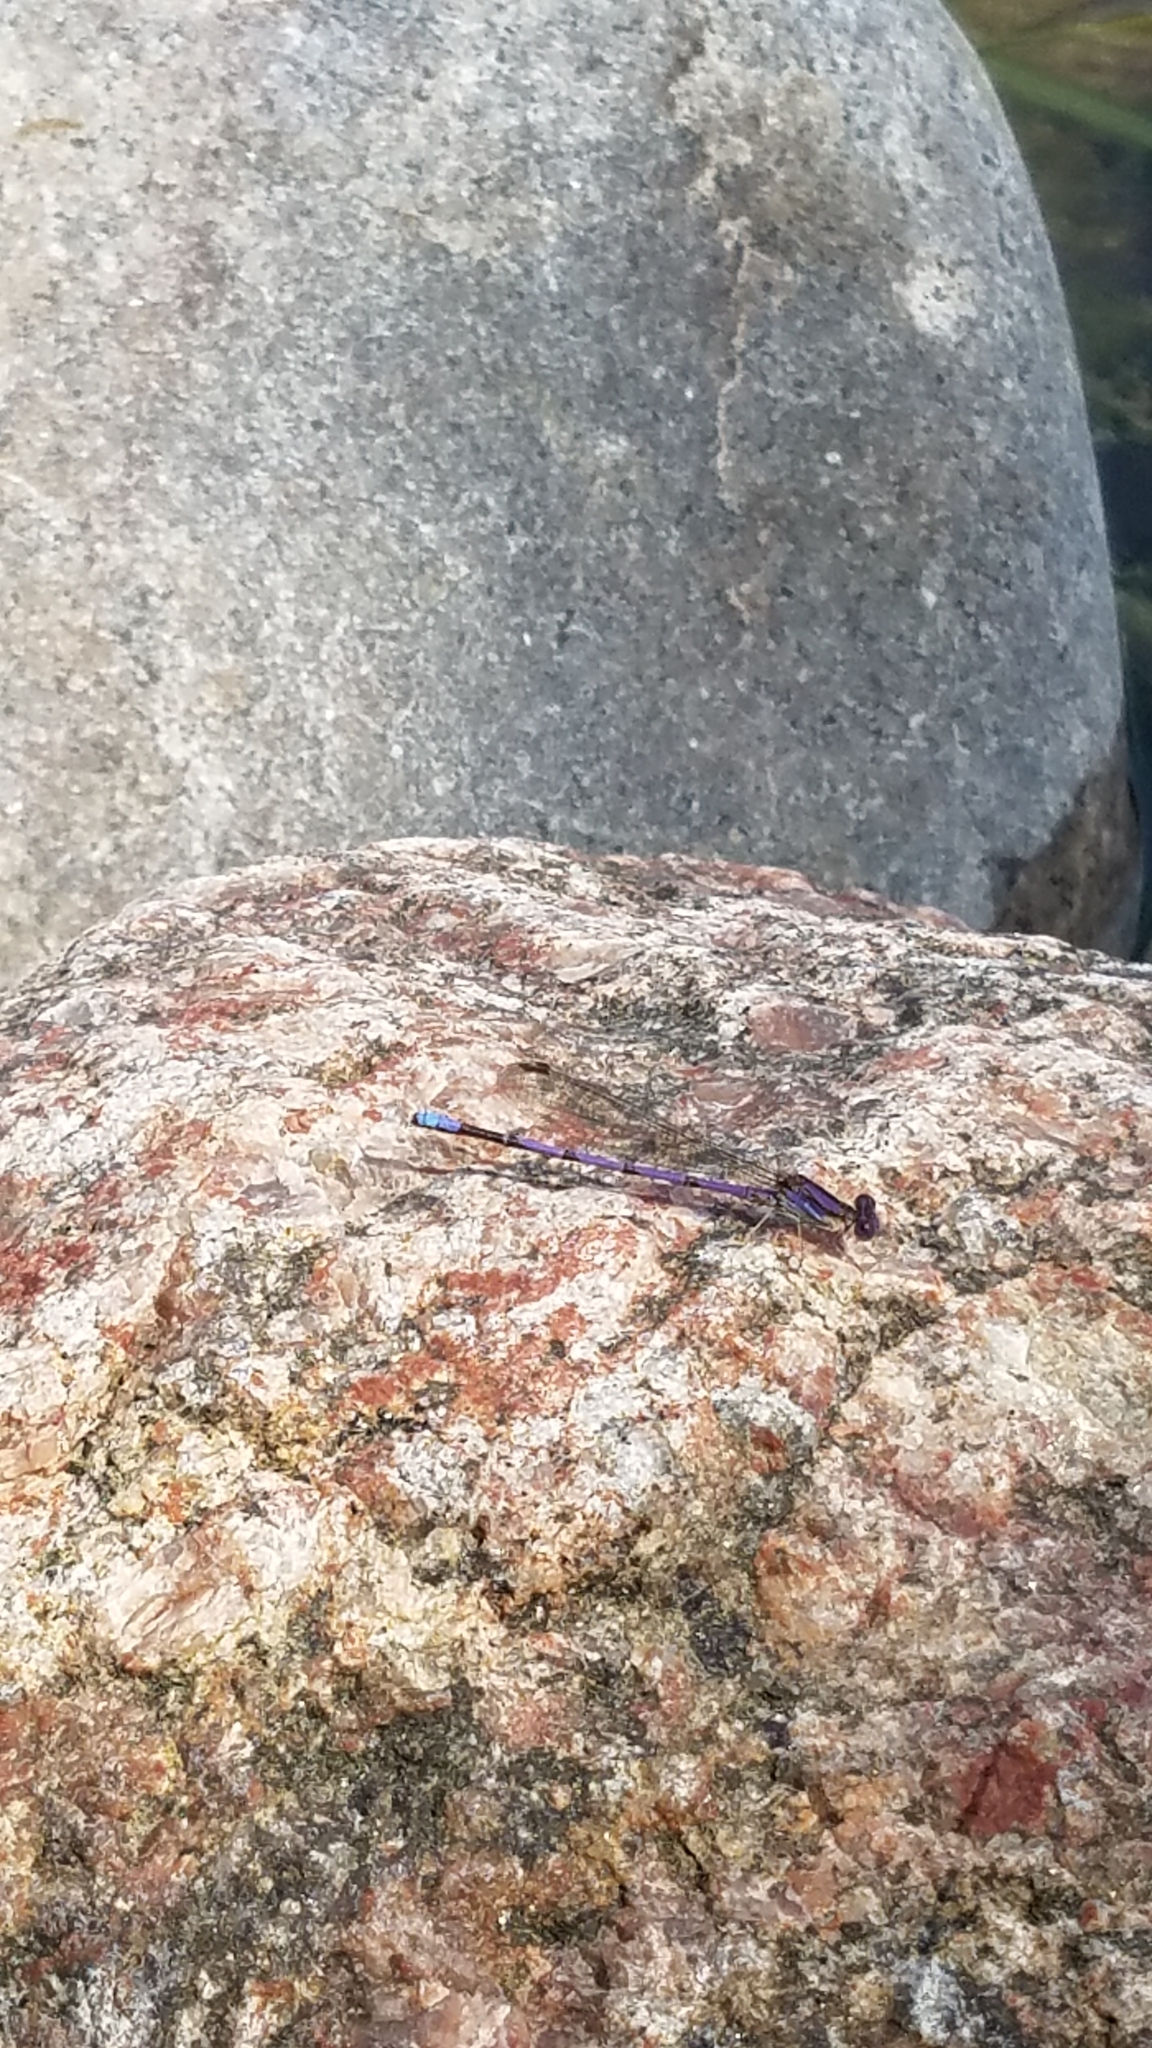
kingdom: Animalia
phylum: Arthropoda
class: Insecta
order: Odonata
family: Coenagrionidae
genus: Argia
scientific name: Argia fumipennis
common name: Variable dancer
